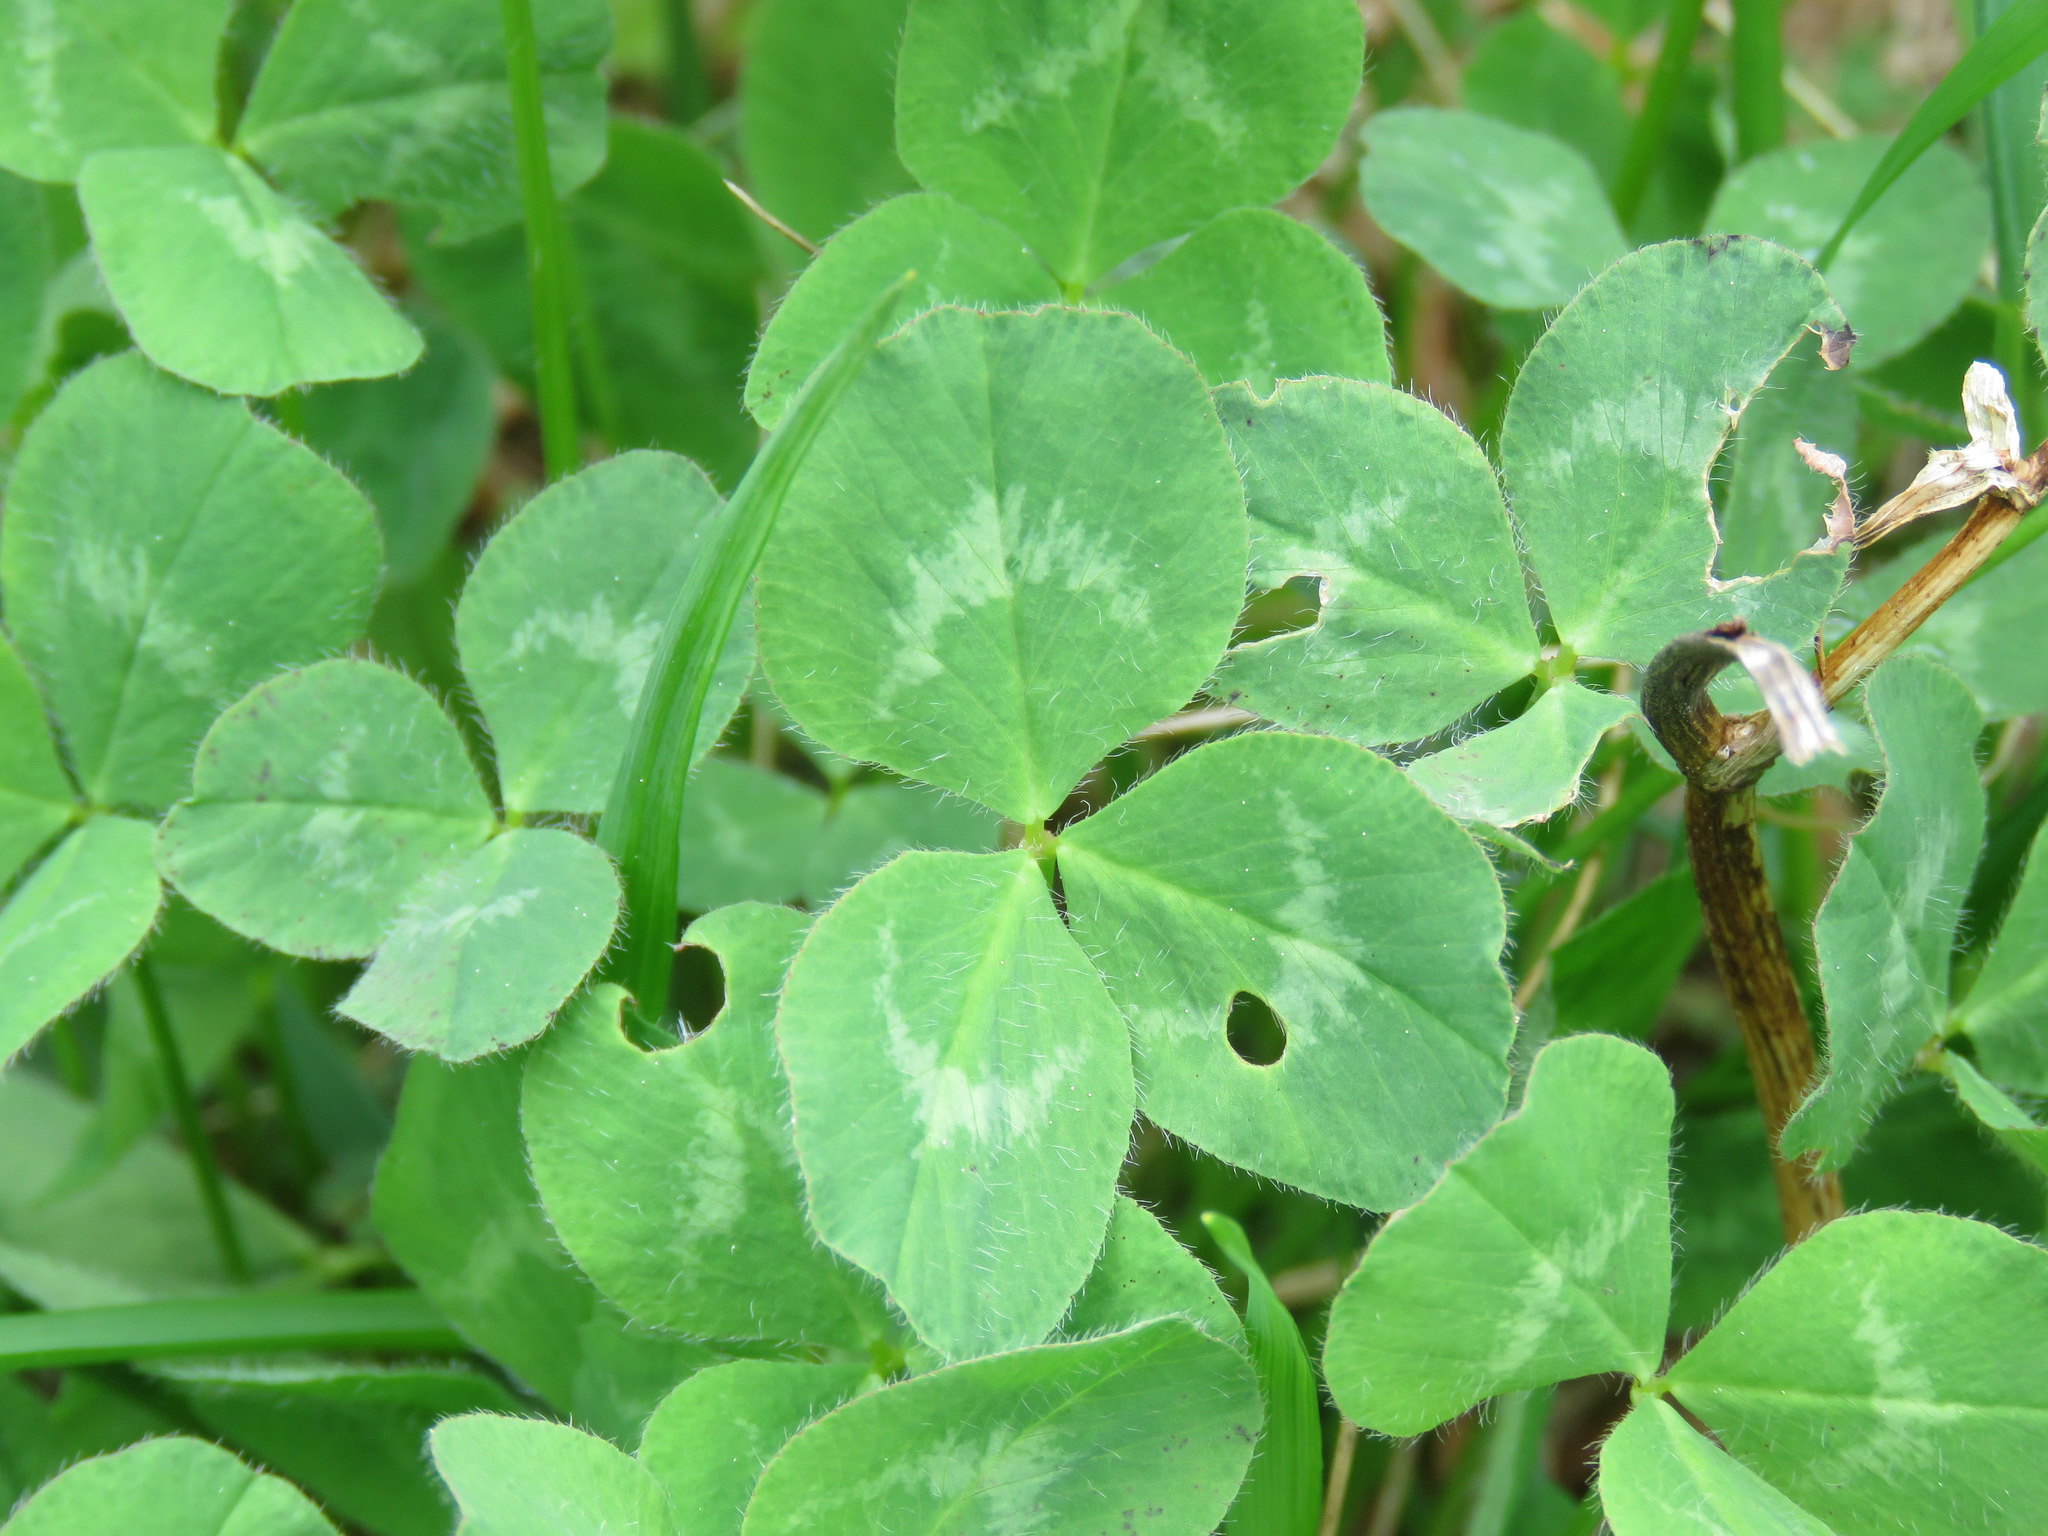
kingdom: Plantae
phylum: Tracheophyta
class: Magnoliopsida
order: Fabales
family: Fabaceae
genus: Trifolium
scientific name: Trifolium pratense
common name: Red clover
